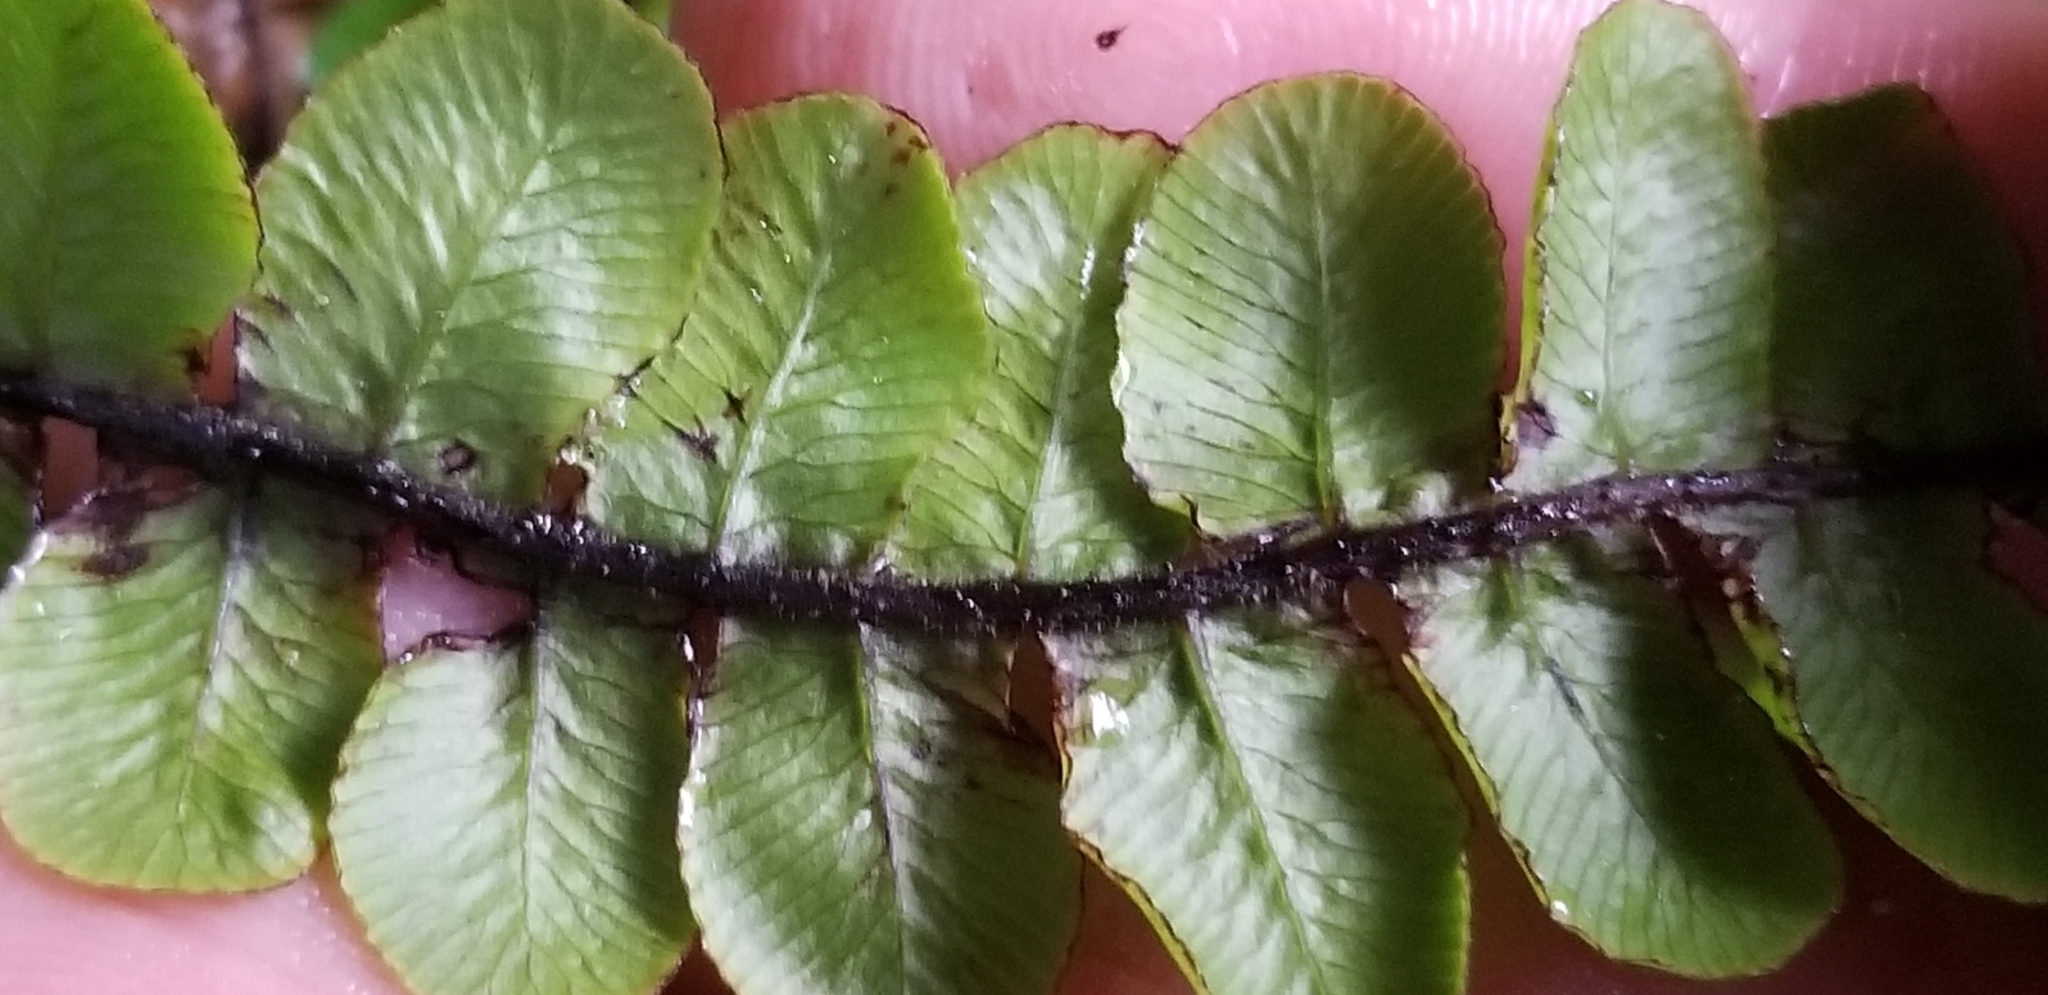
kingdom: Plantae
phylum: Tracheophyta
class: Polypodiopsida
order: Polypodiales
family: Blechnaceae
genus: Cranfillia
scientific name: Cranfillia fluviatilis
